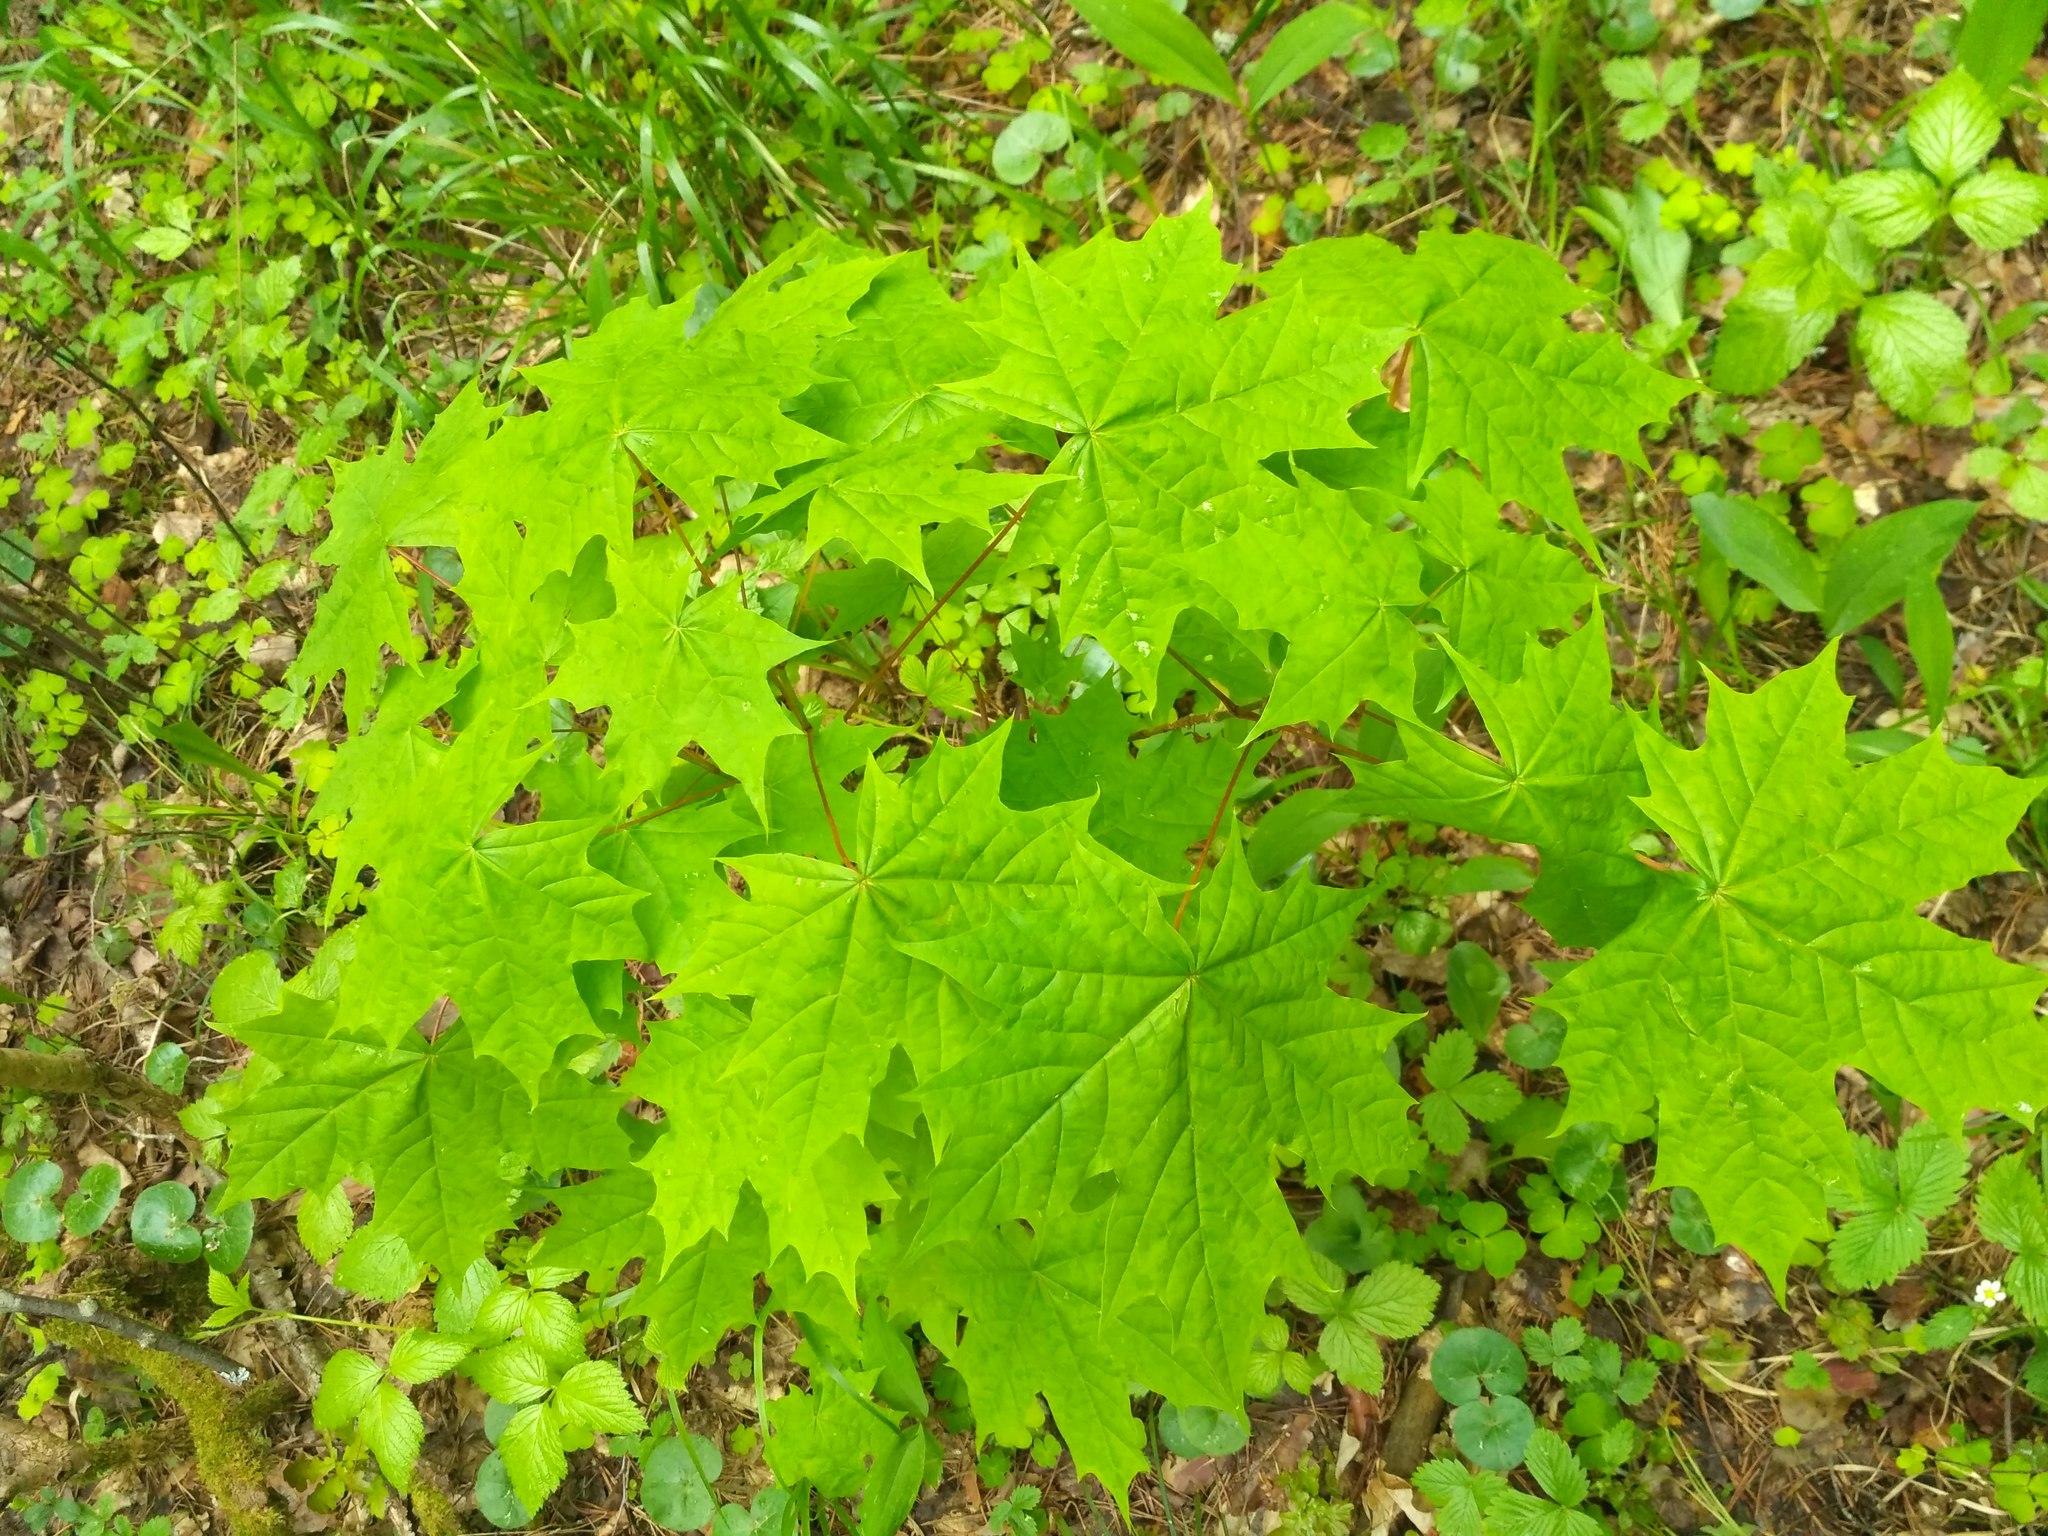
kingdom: Plantae
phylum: Tracheophyta
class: Magnoliopsida
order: Sapindales
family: Sapindaceae
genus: Acer
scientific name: Acer platanoides
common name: Norway maple
